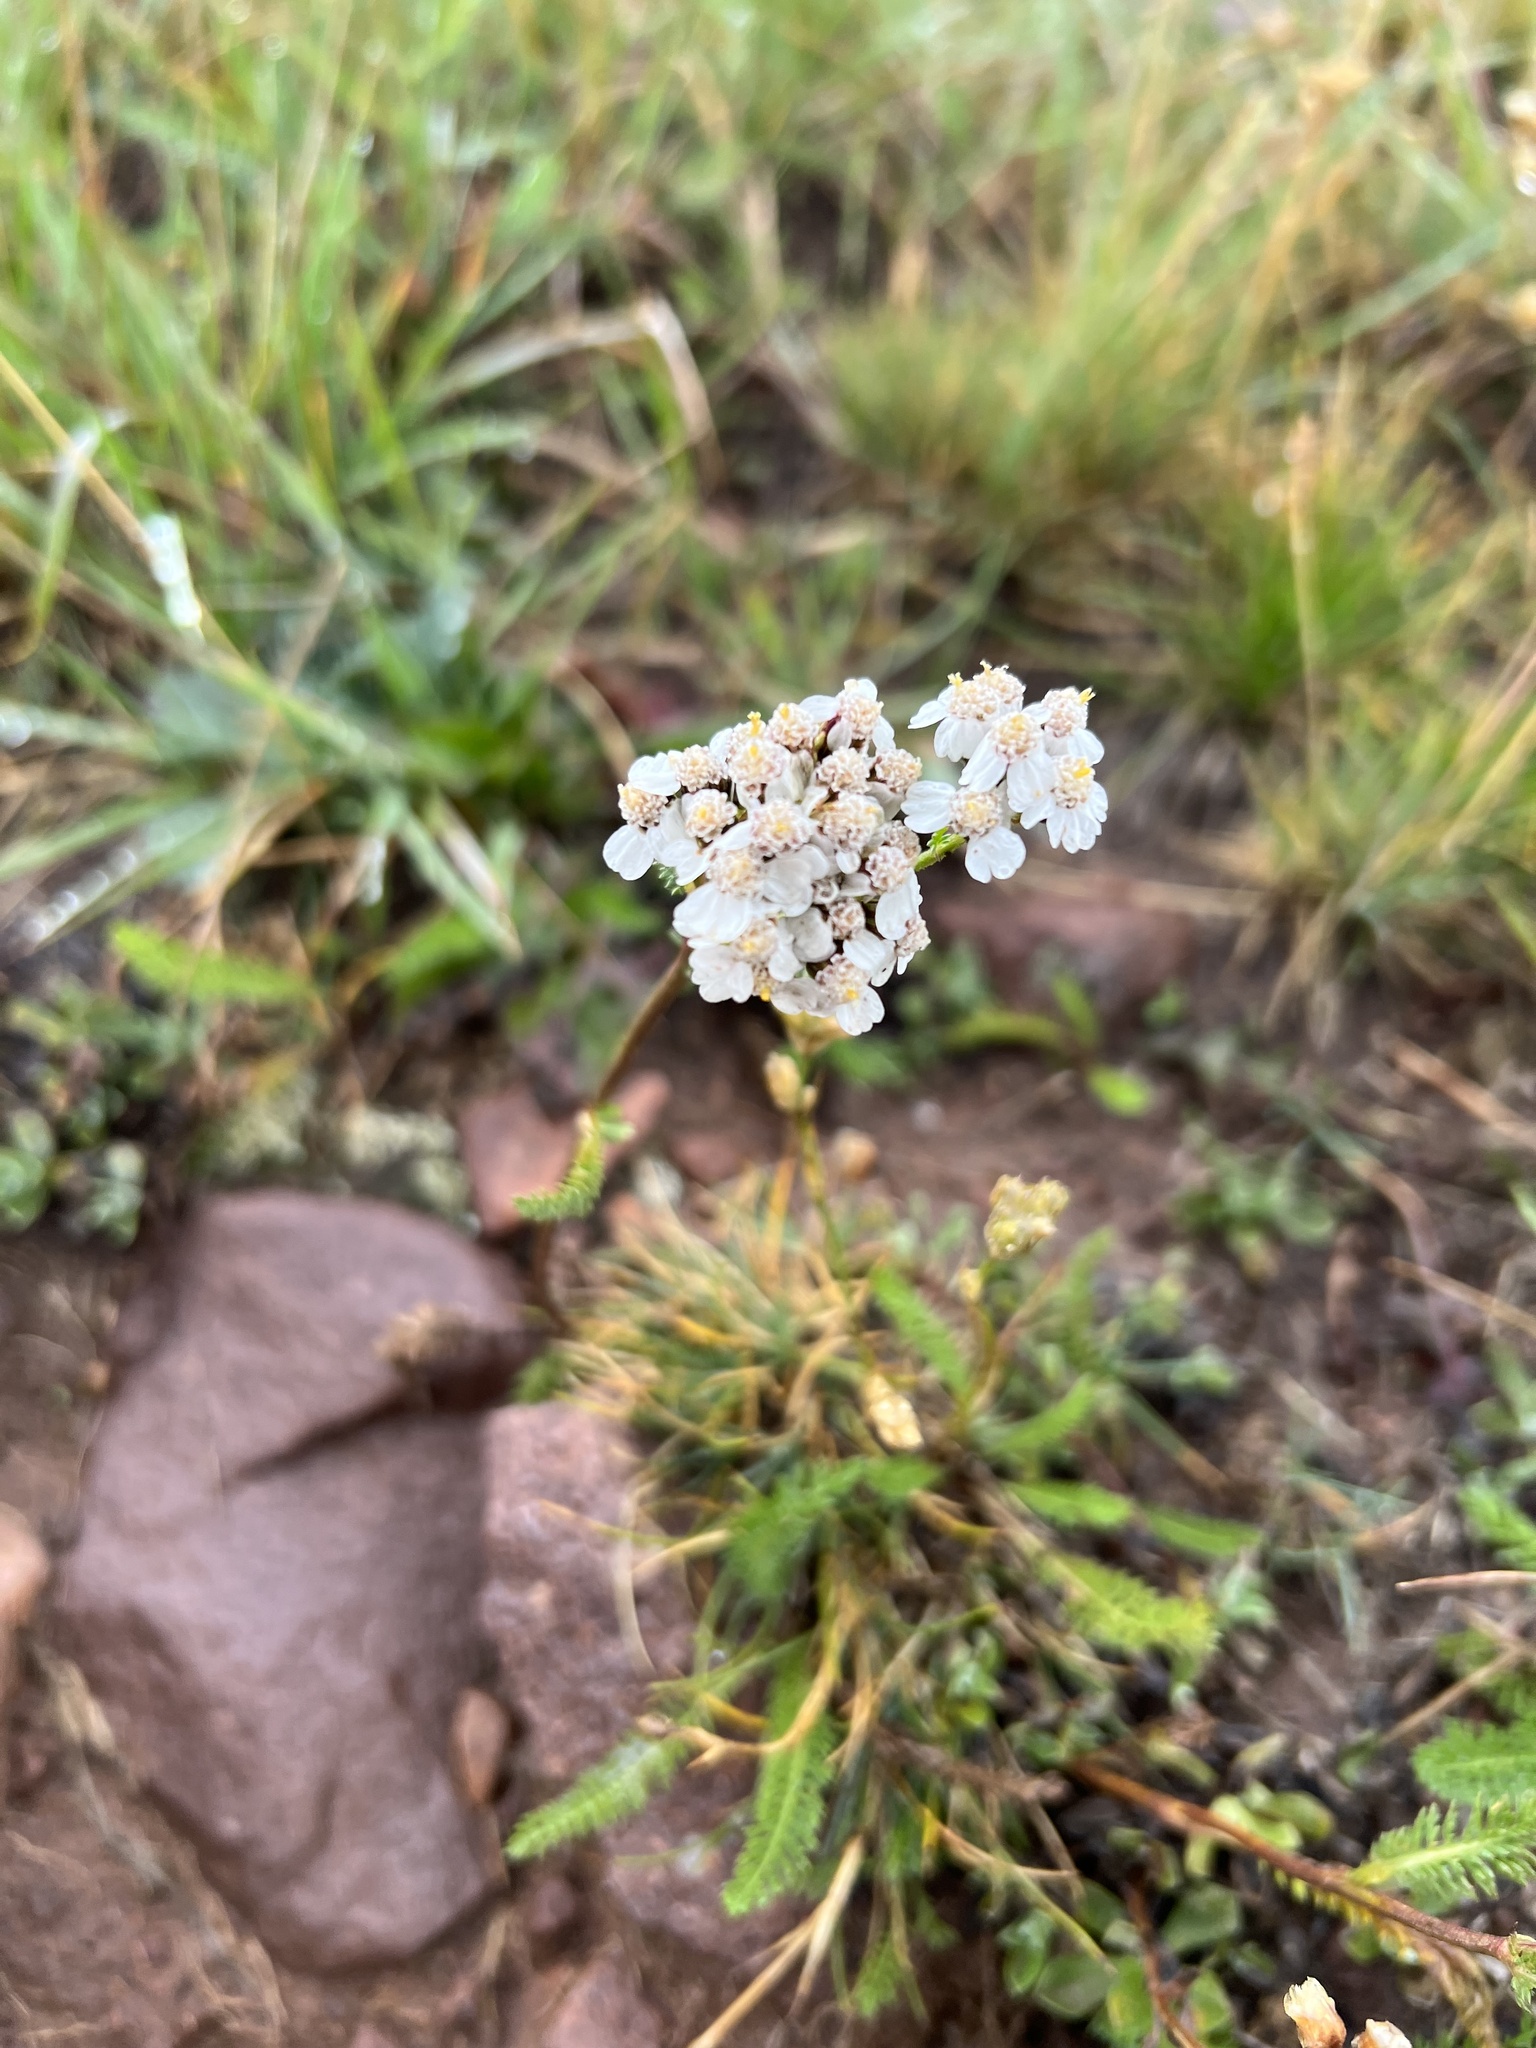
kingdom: Plantae
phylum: Tracheophyta
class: Magnoliopsida
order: Asterales
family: Asteraceae
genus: Achillea
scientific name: Achillea millefolium
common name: Yarrow
